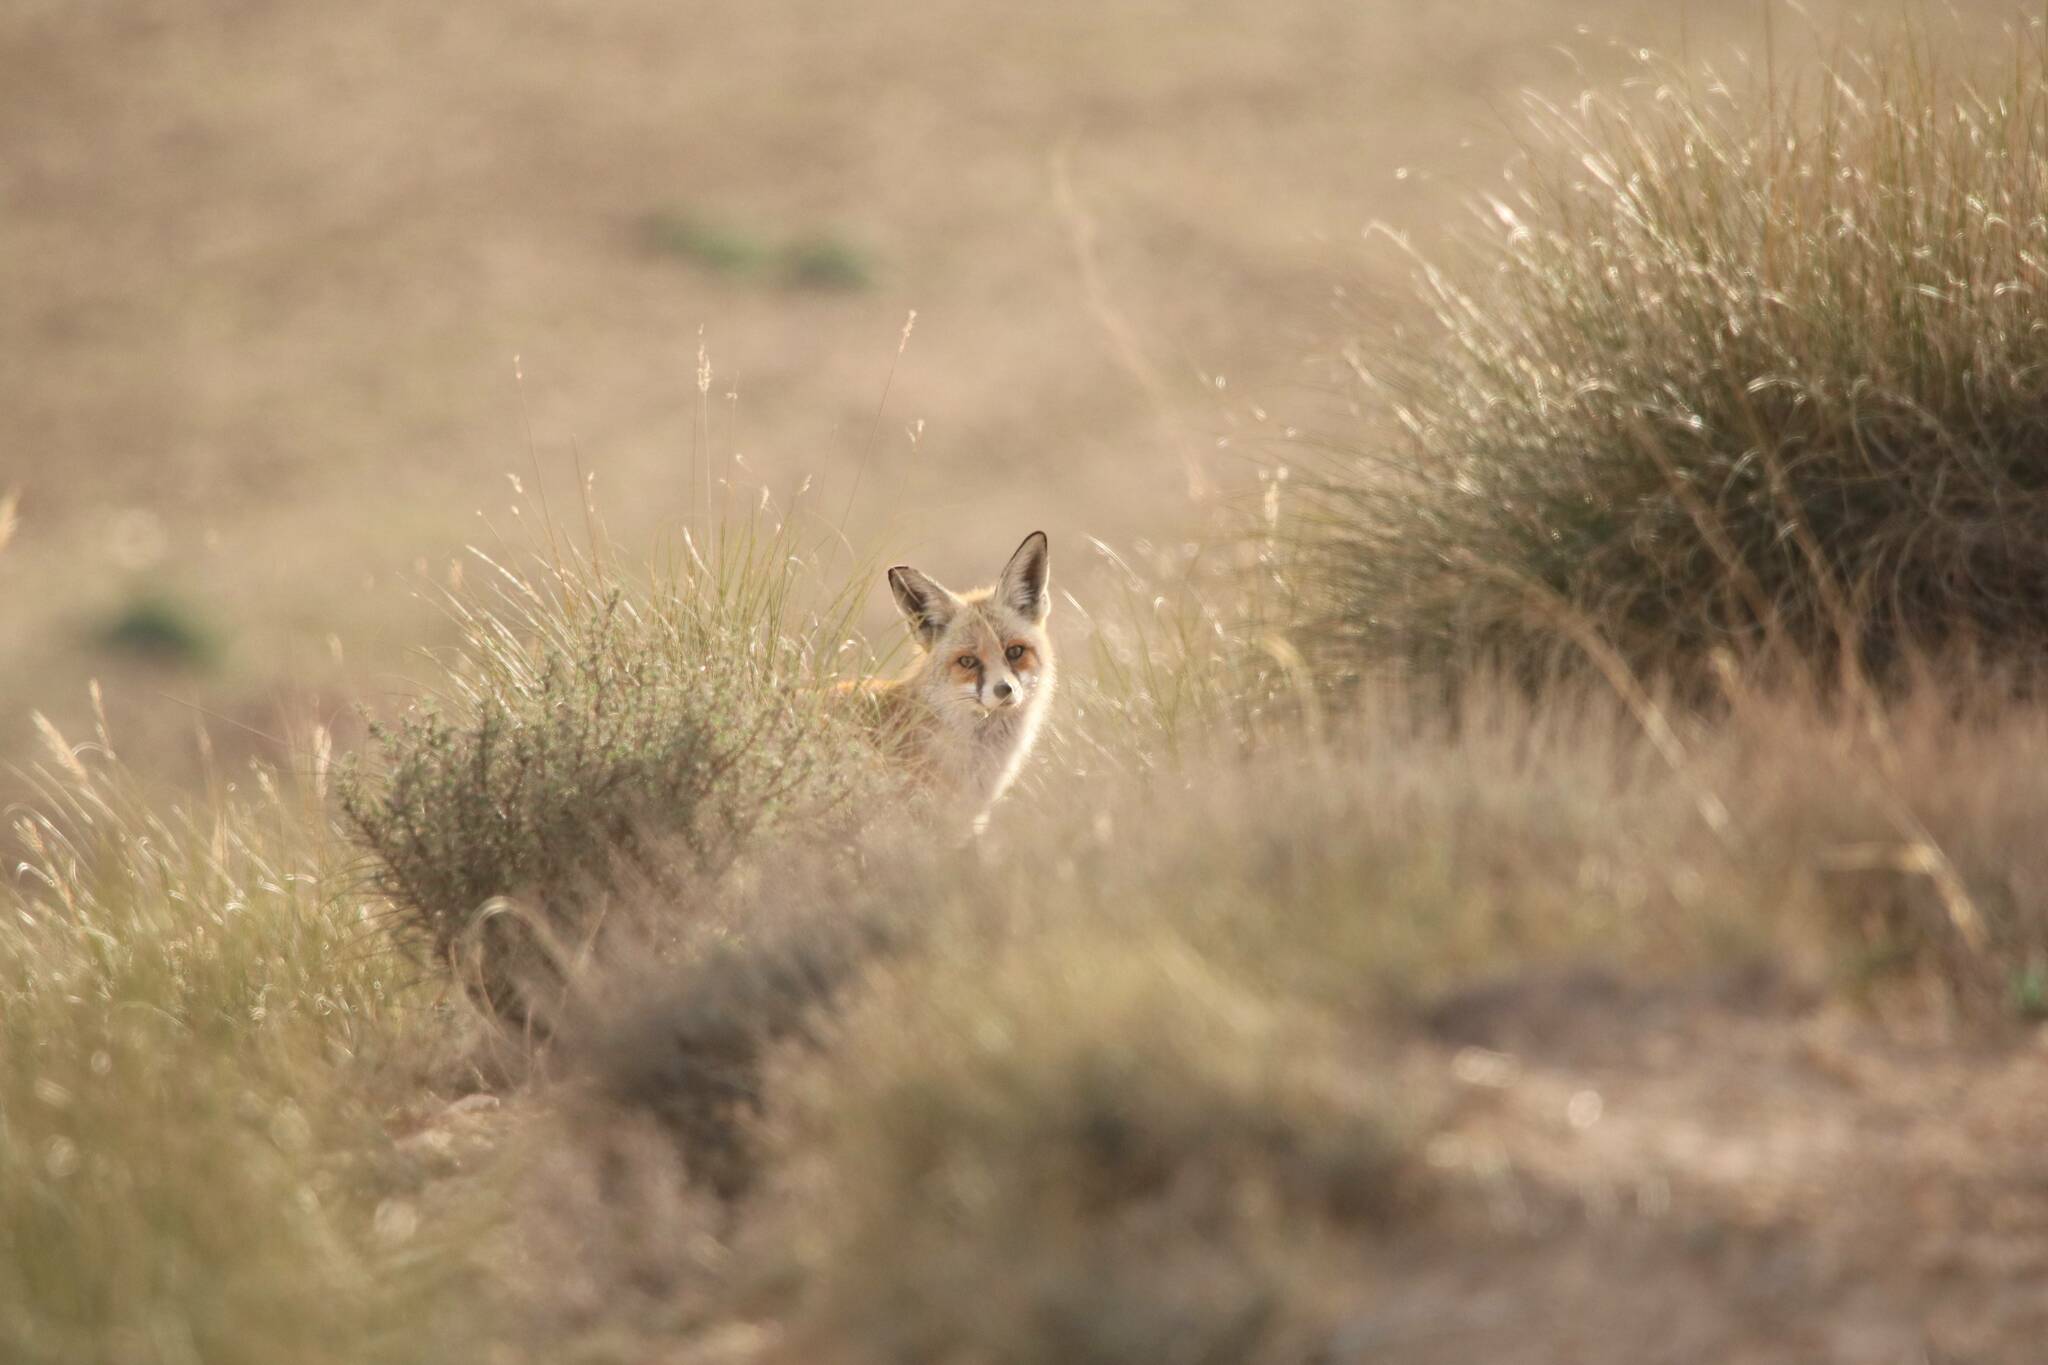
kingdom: Animalia
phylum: Chordata
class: Mammalia
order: Carnivora
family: Canidae
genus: Vulpes
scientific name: Vulpes vulpes
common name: Red fox
